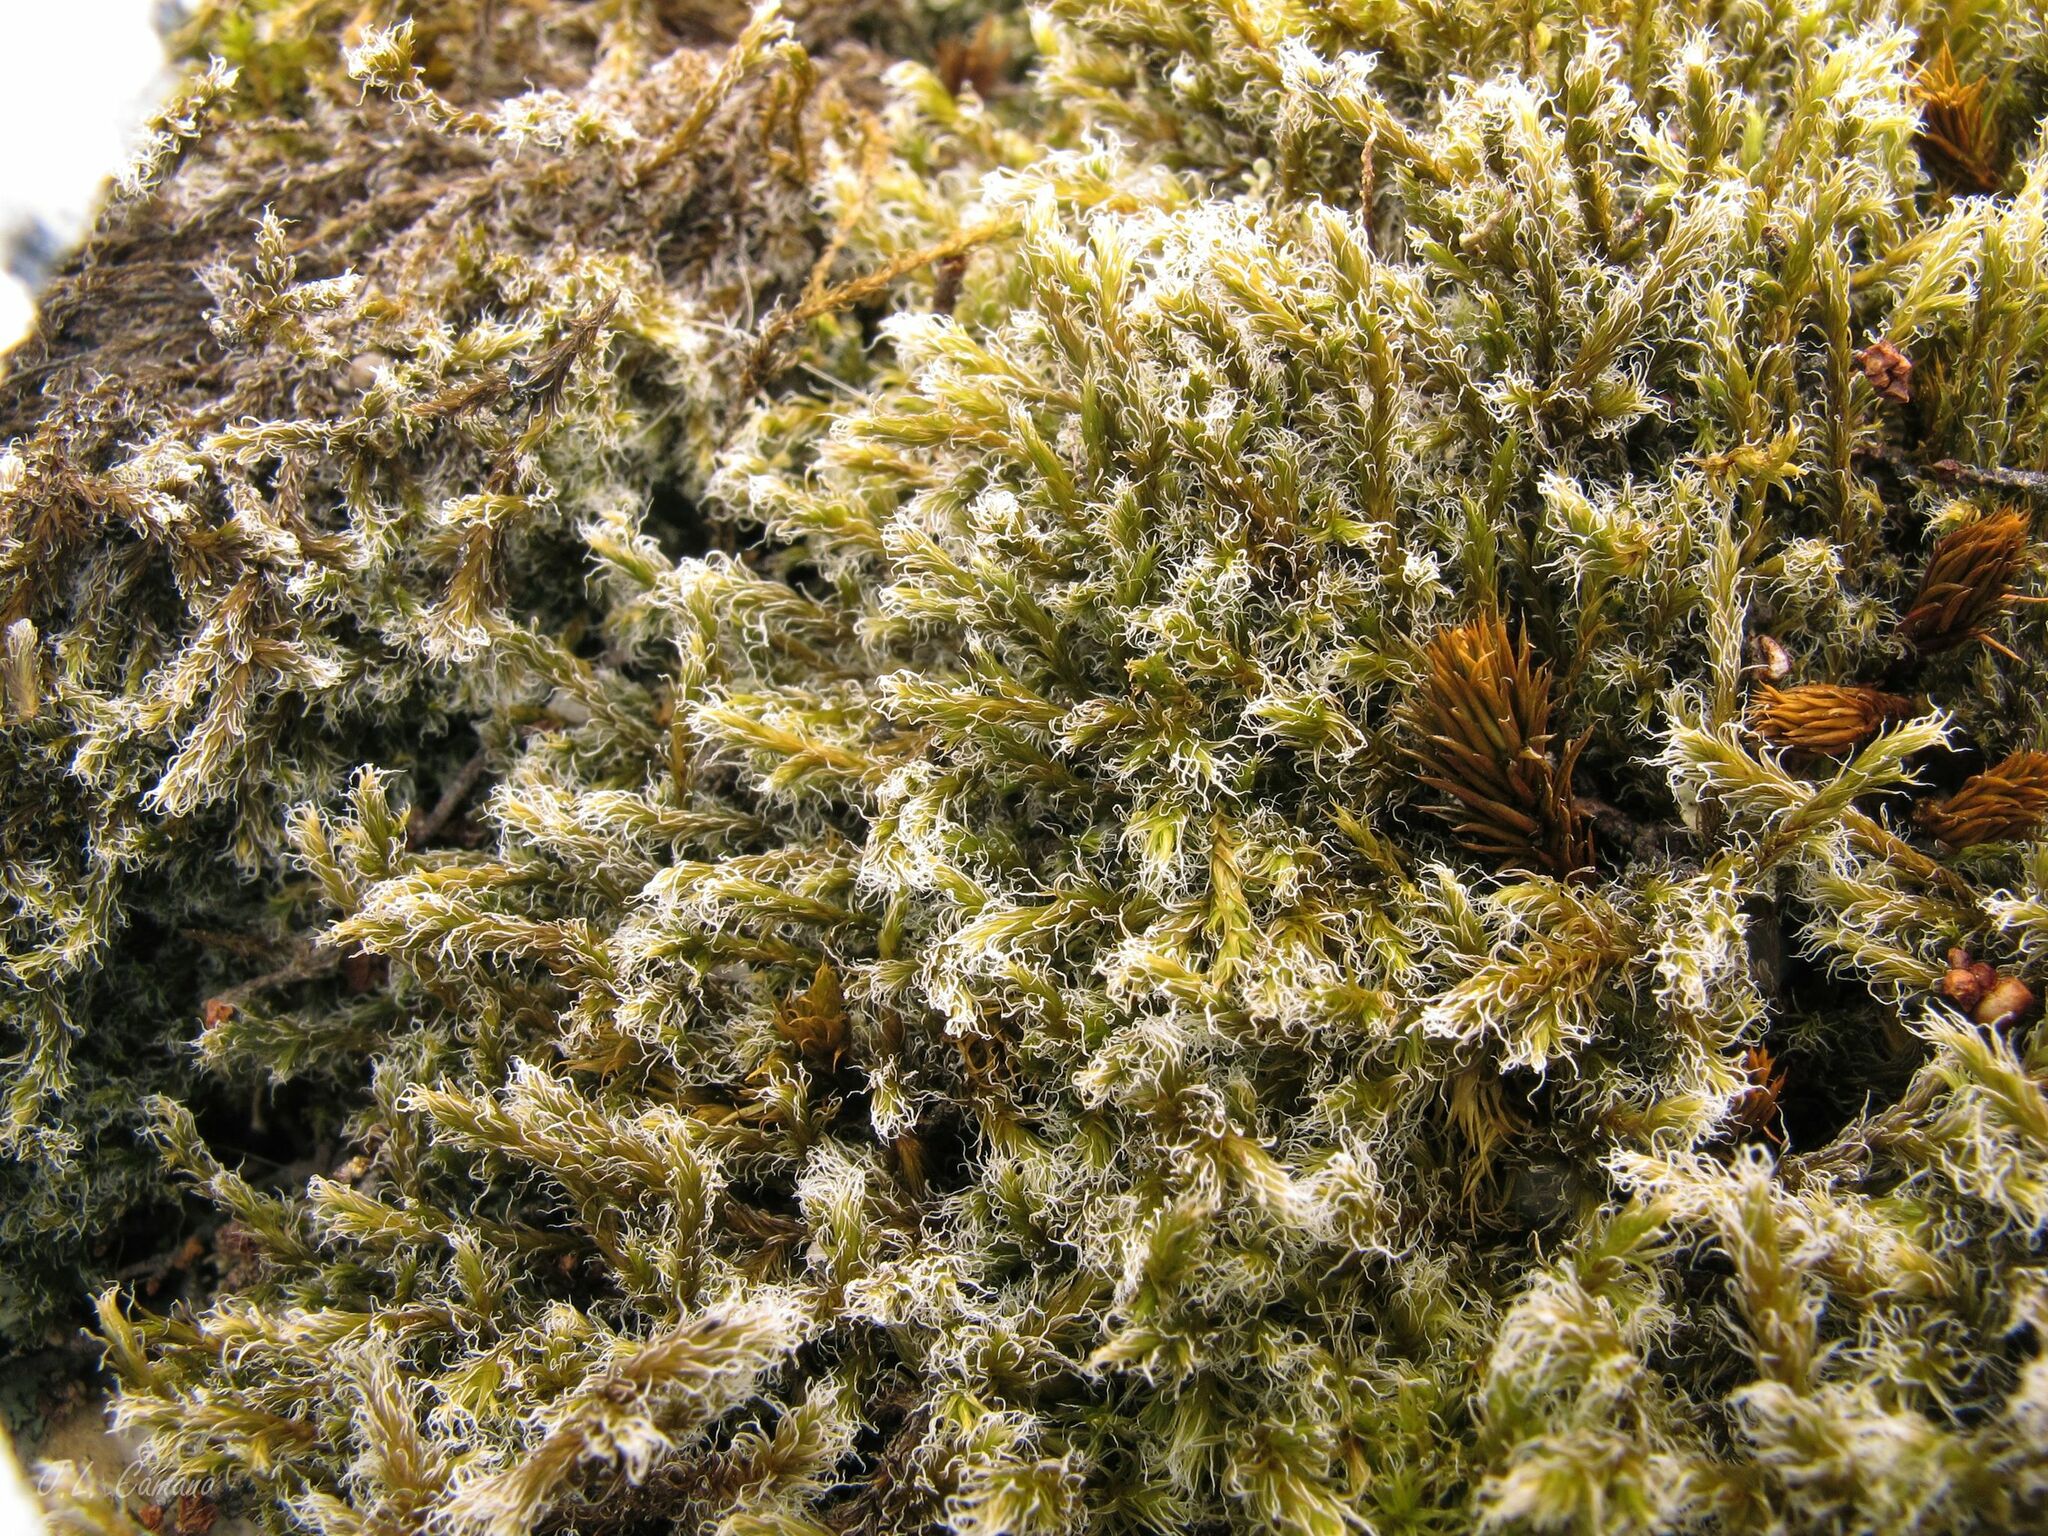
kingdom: Plantae
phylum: Bryophyta
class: Bryopsida
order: Grimmiales
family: Grimmiaceae
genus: Racomitrium
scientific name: Racomitrium lanuginosum
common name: Hoary rock moss
